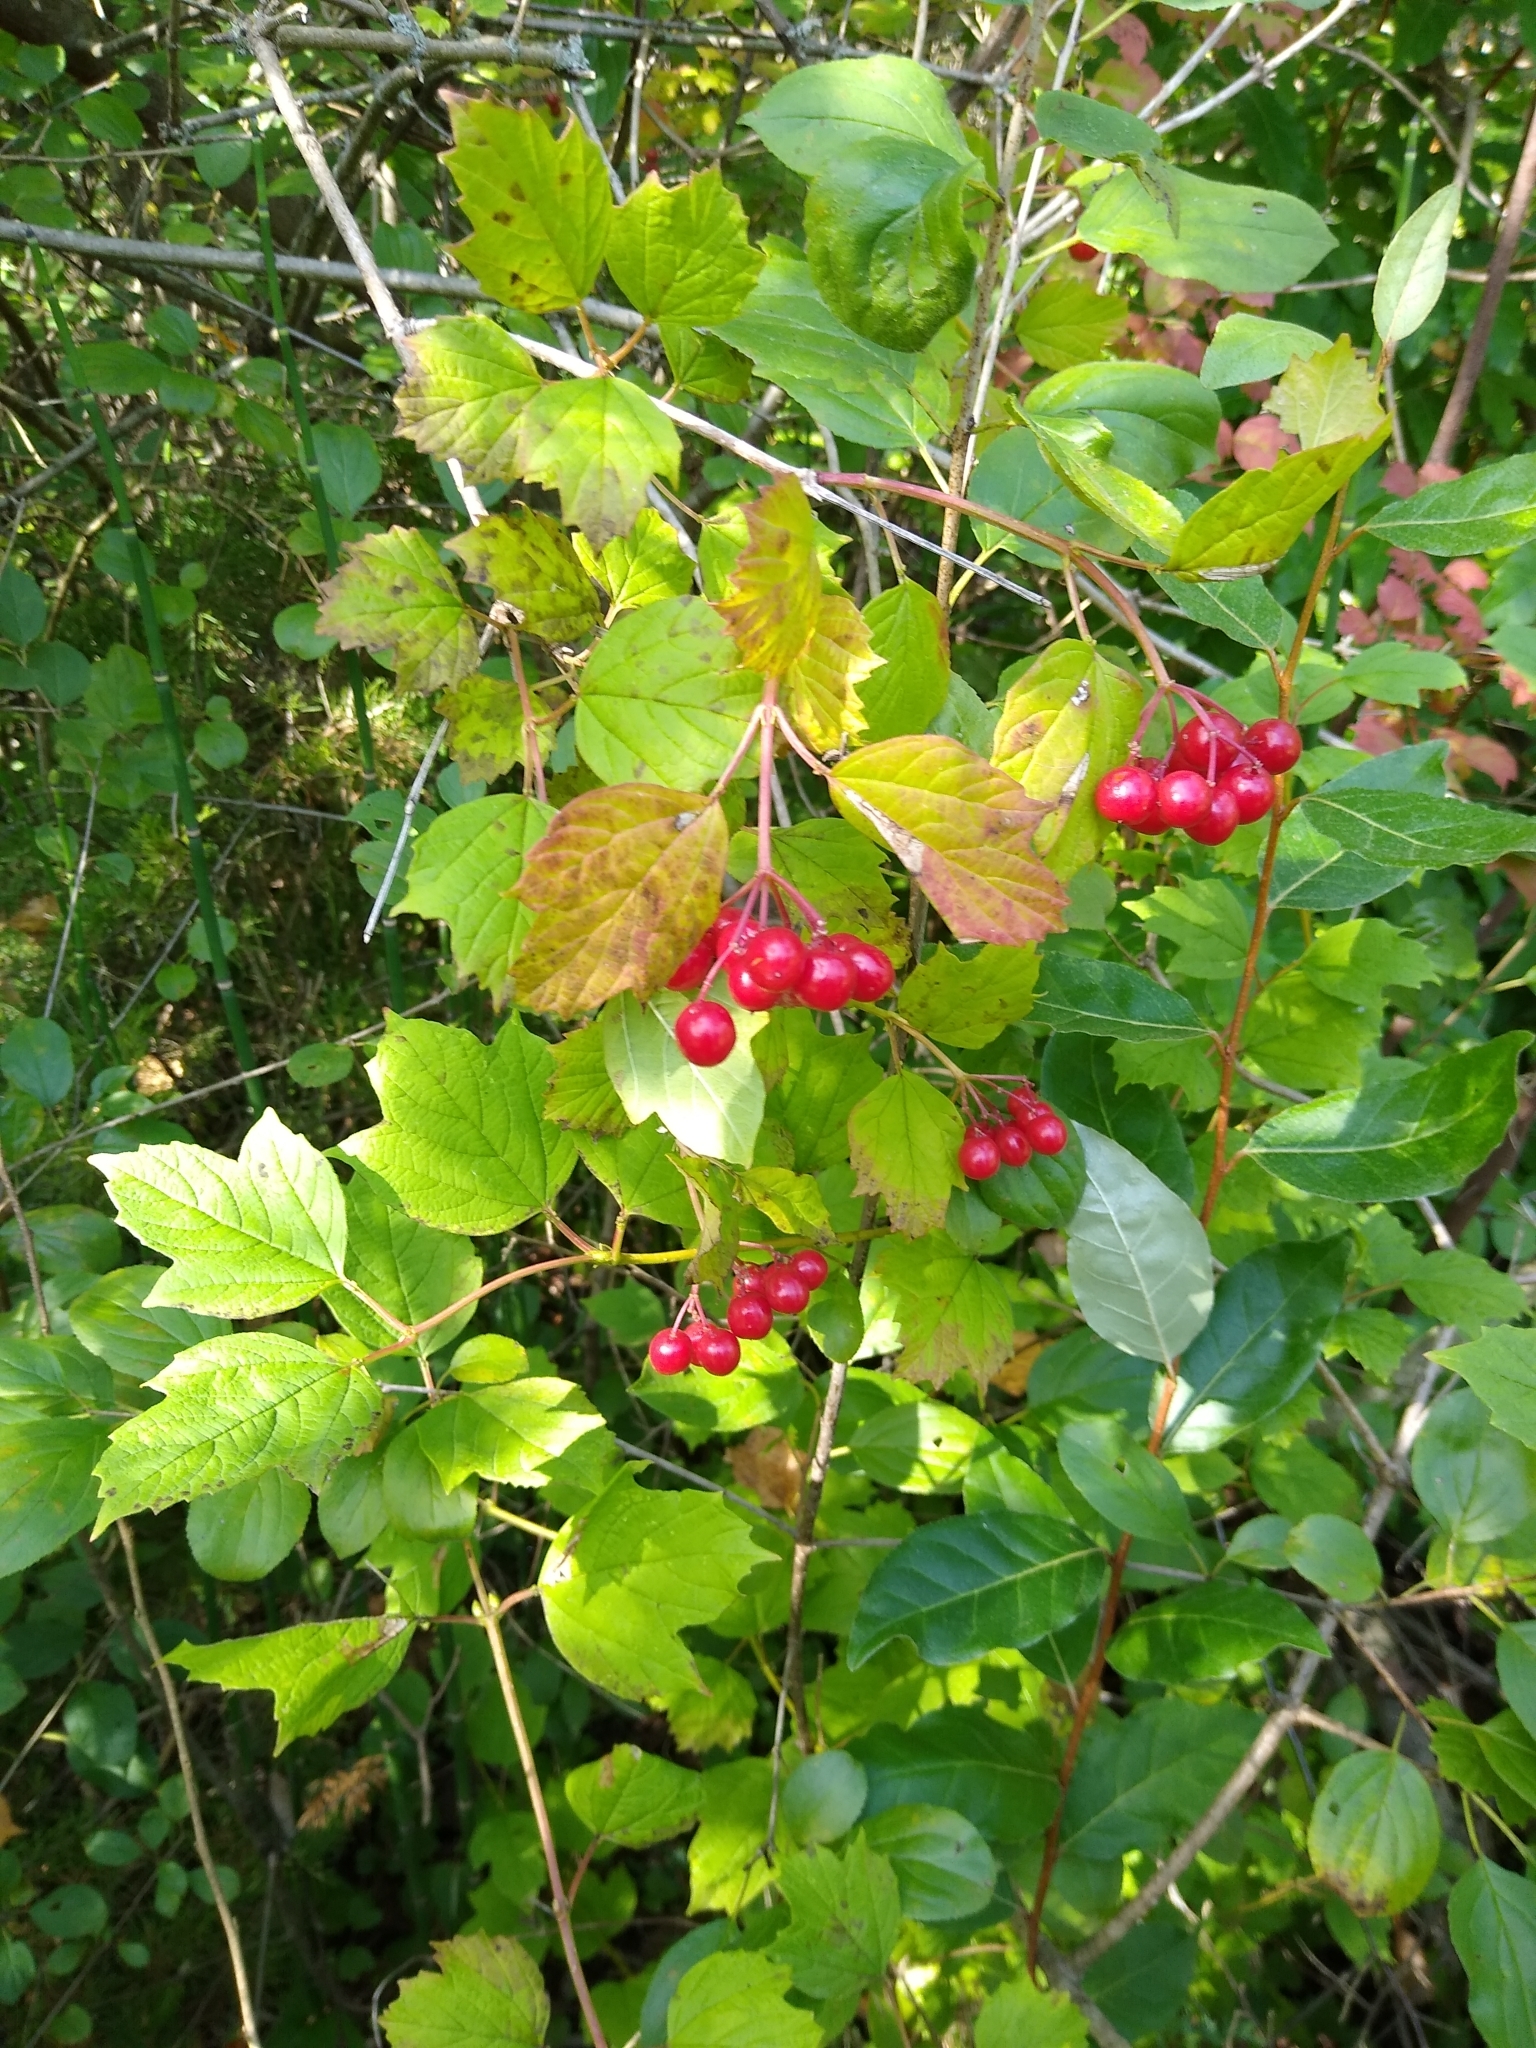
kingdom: Plantae
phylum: Tracheophyta
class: Magnoliopsida
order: Dipsacales
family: Viburnaceae
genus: Viburnum
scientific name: Viburnum opulus
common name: Guelder-rose
